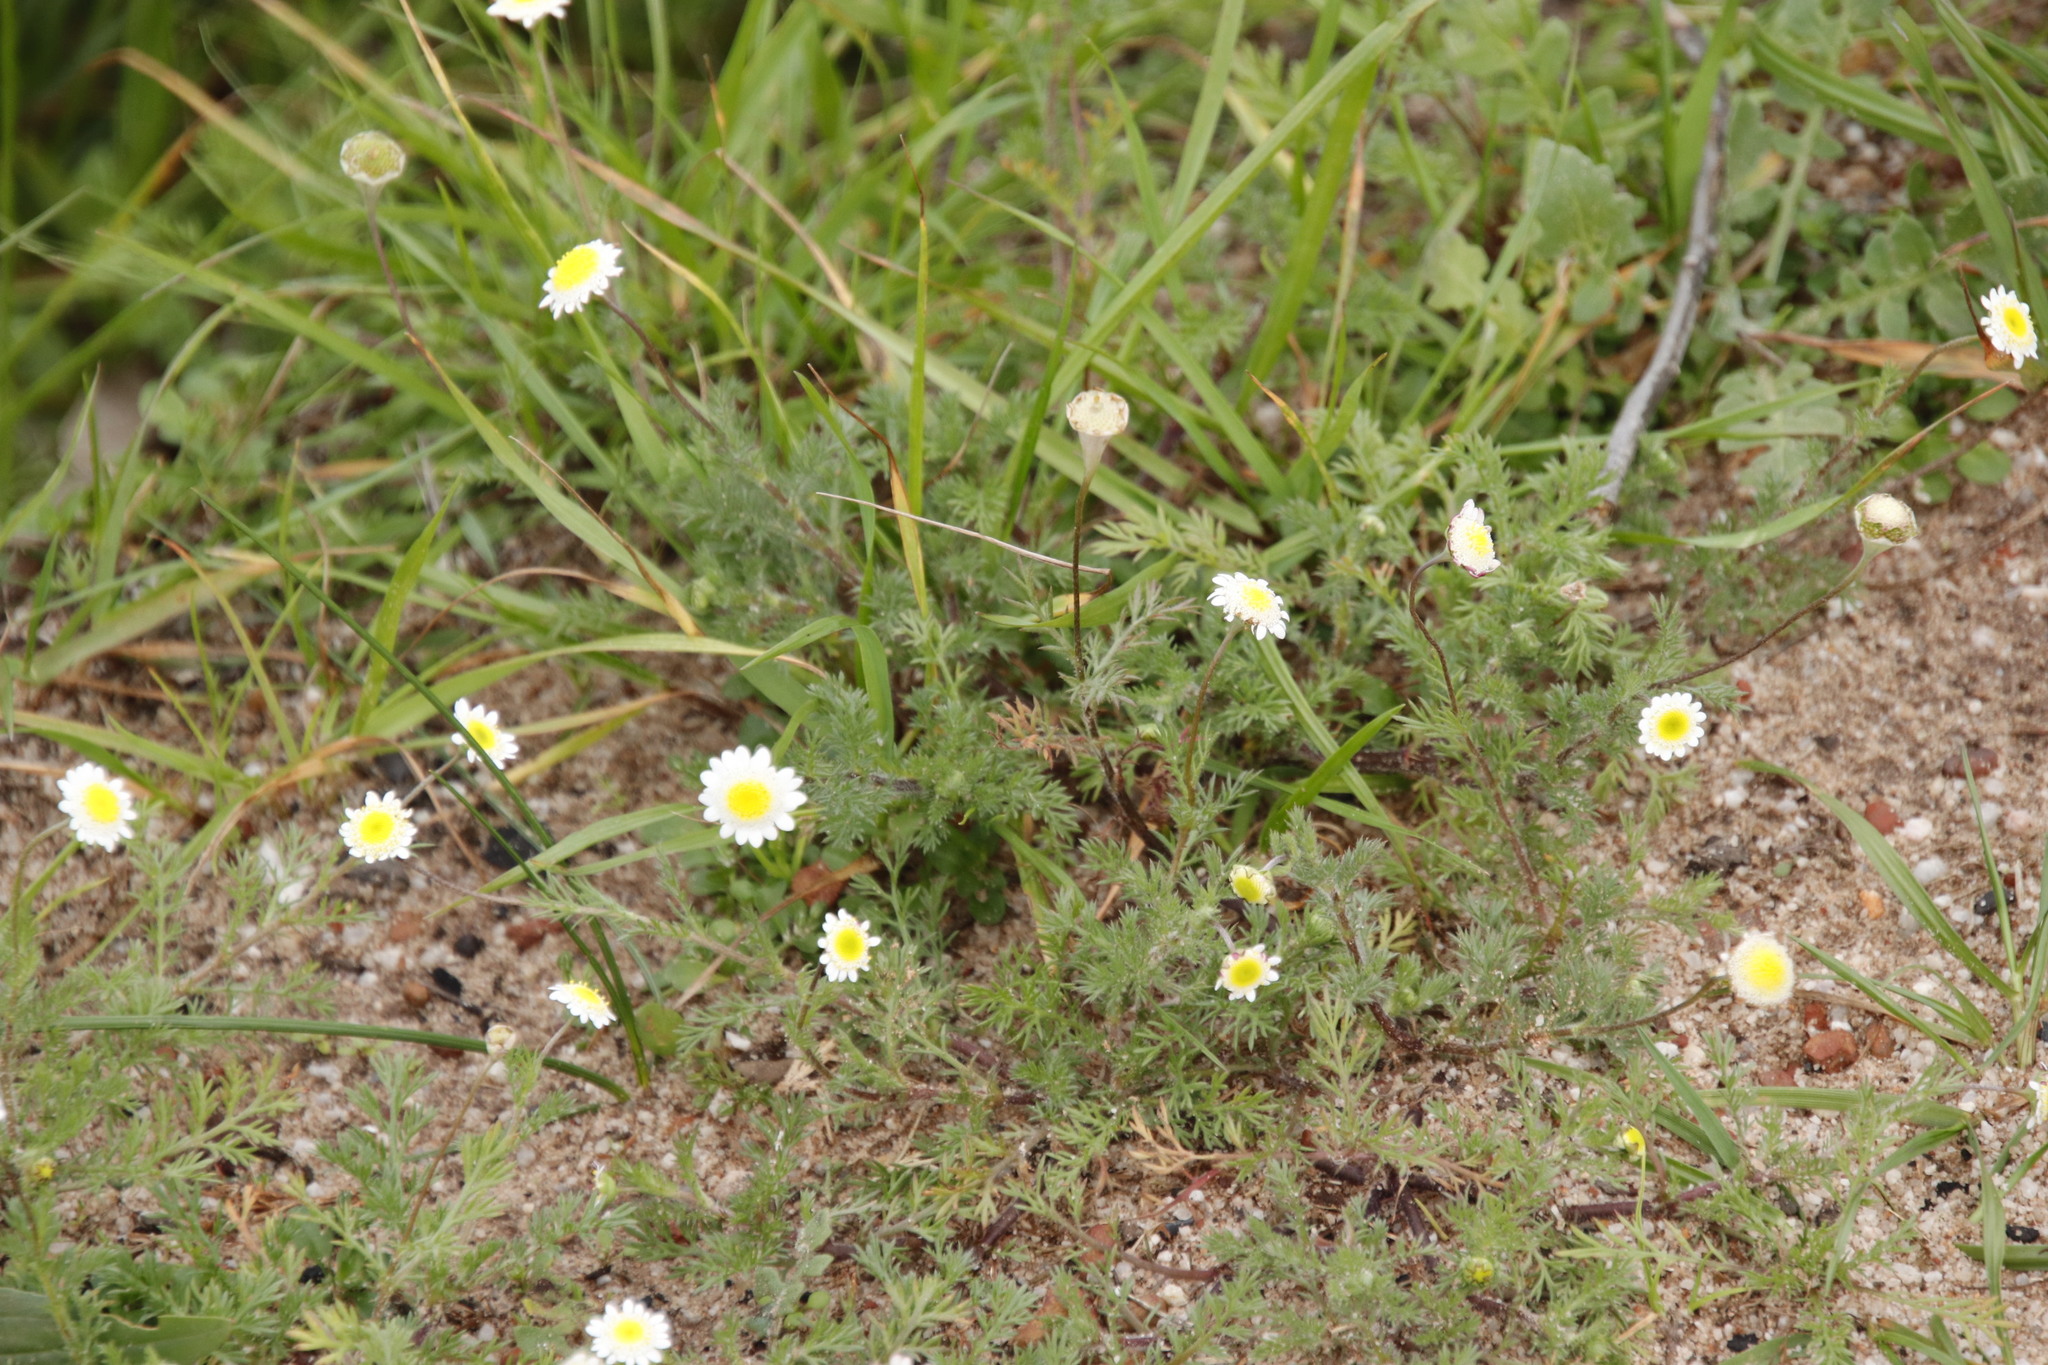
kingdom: Plantae
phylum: Tracheophyta
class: Magnoliopsida
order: Asterales
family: Asteraceae
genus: Cotula
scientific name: Cotula turbinata
